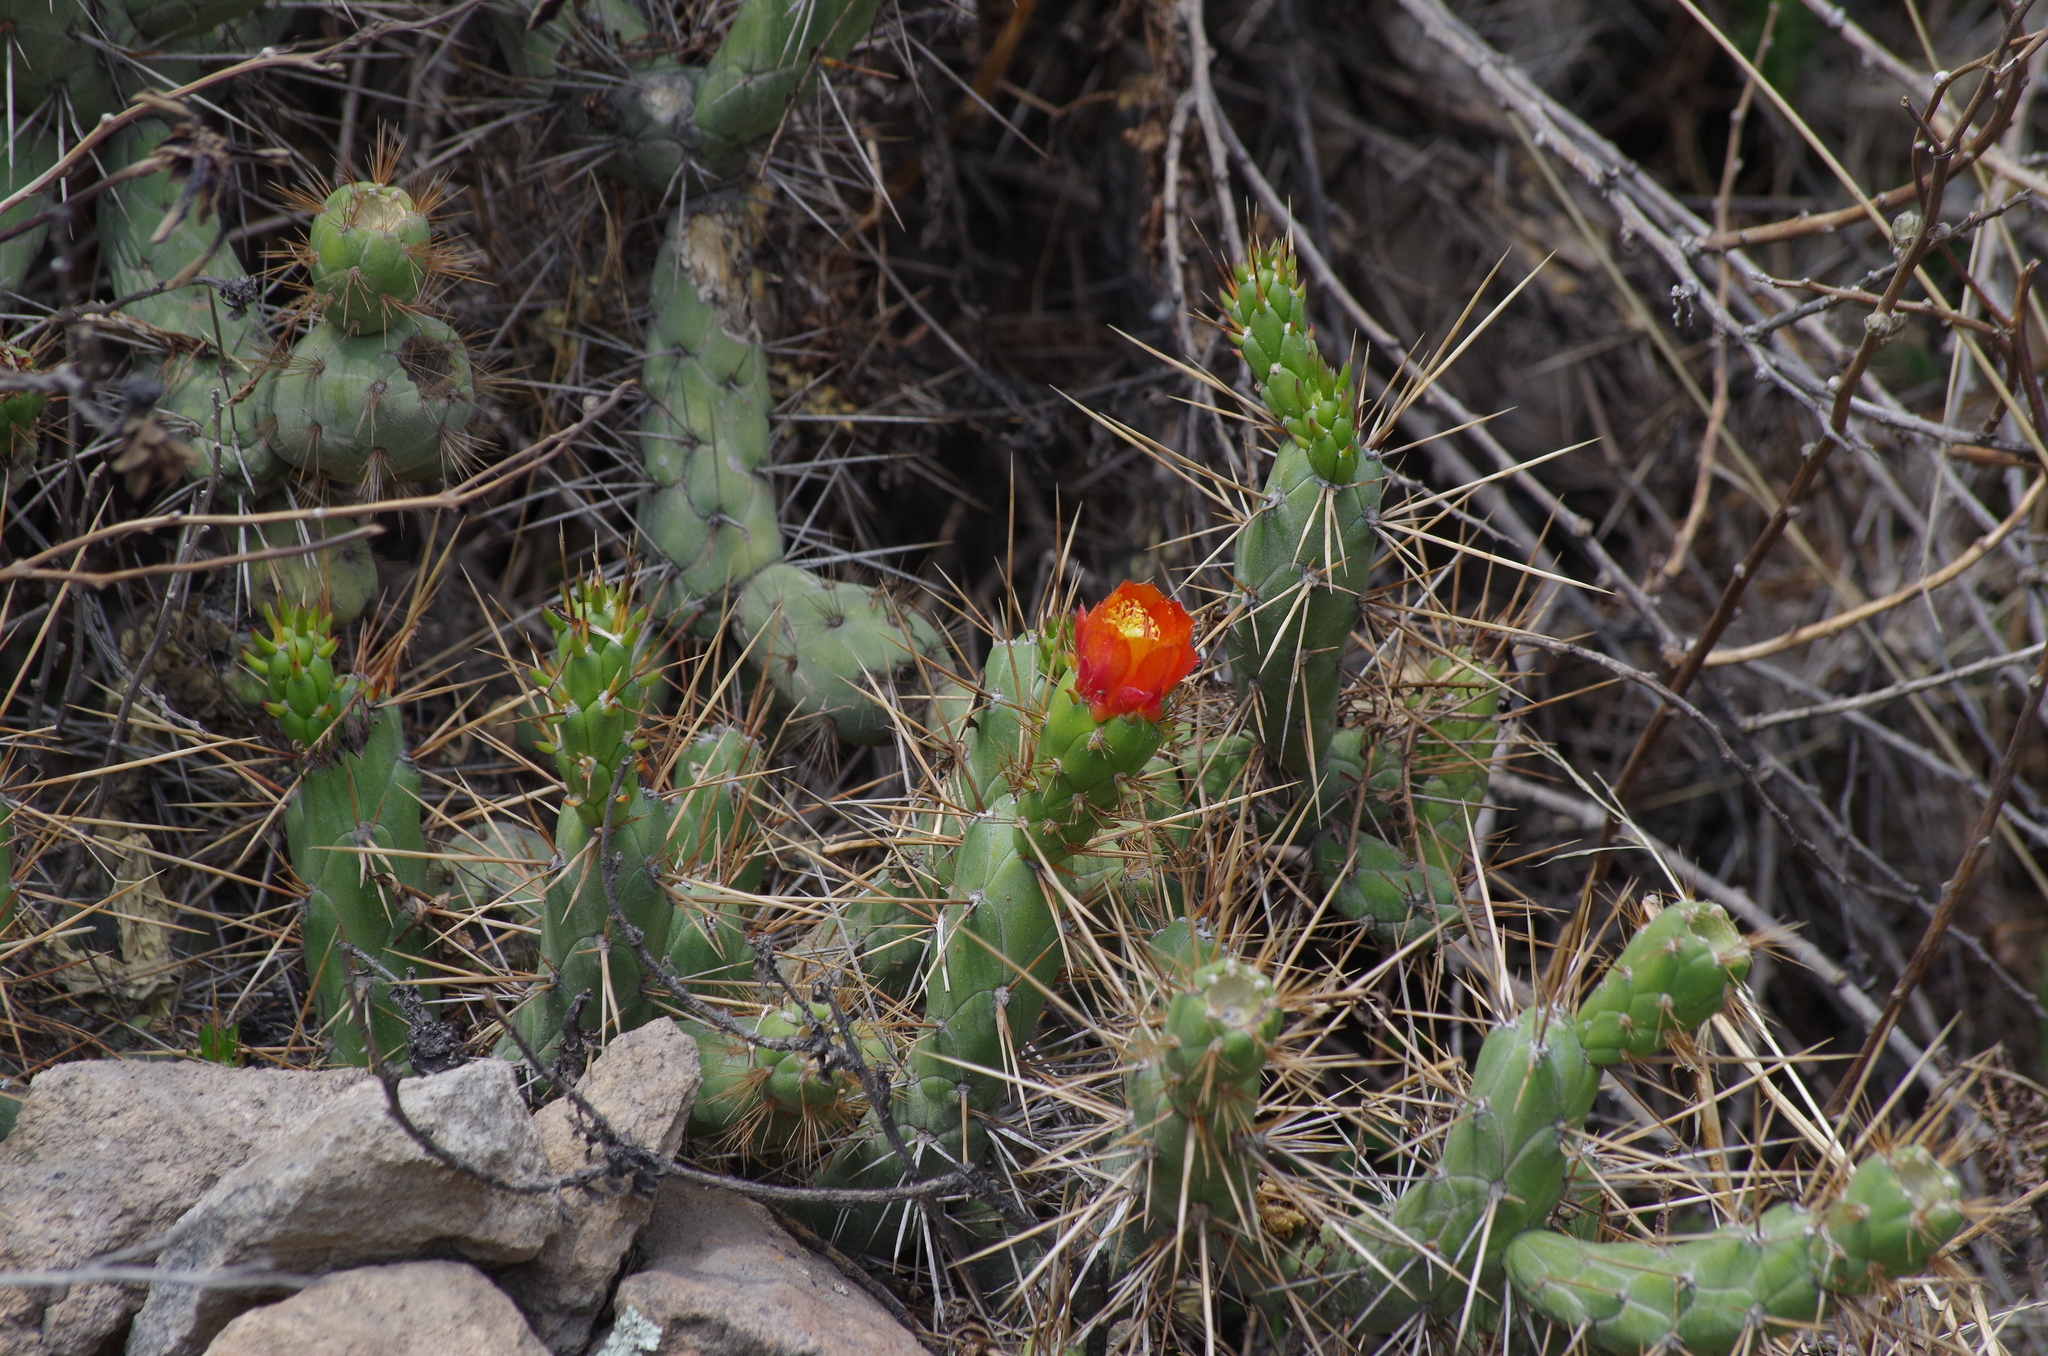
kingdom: Plantae
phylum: Tracheophyta
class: Magnoliopsida
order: Caryophyllales
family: Cactaceae
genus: Austrocylindropuntia
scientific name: Austrocylindropuntia subulata
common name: Eve's needle cactus
